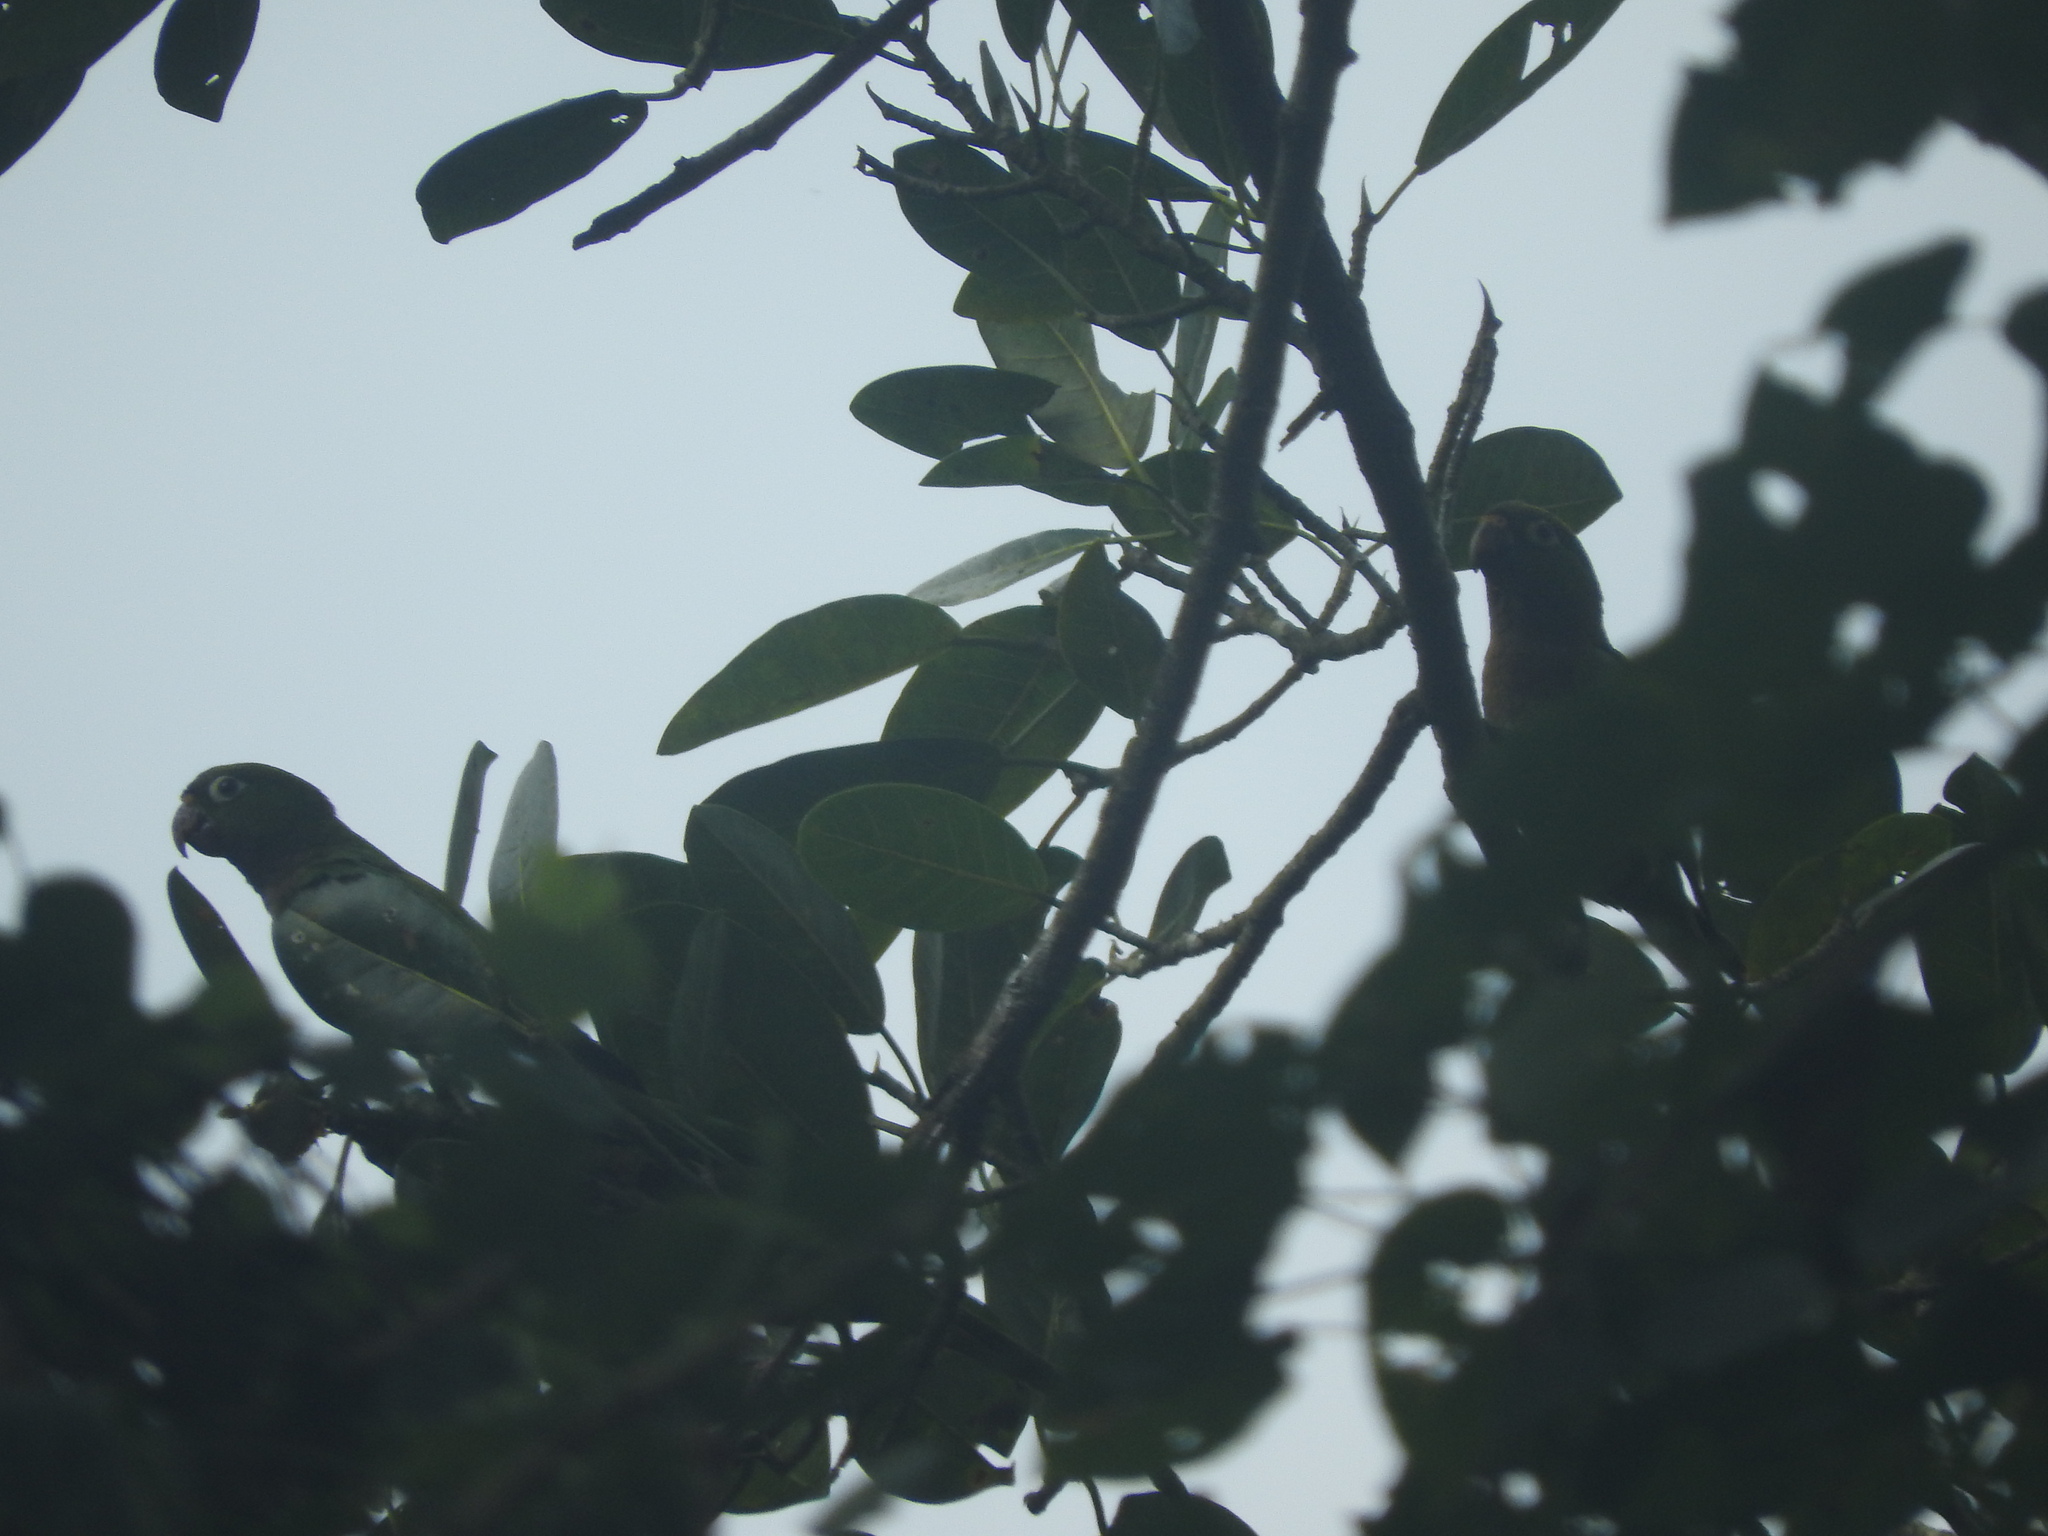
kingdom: Animalia
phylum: Chordata
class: Aves
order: Psittaciformes
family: Psittacidae
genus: Aratinga
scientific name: Aratinga nana
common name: Olive-throated parakeet
